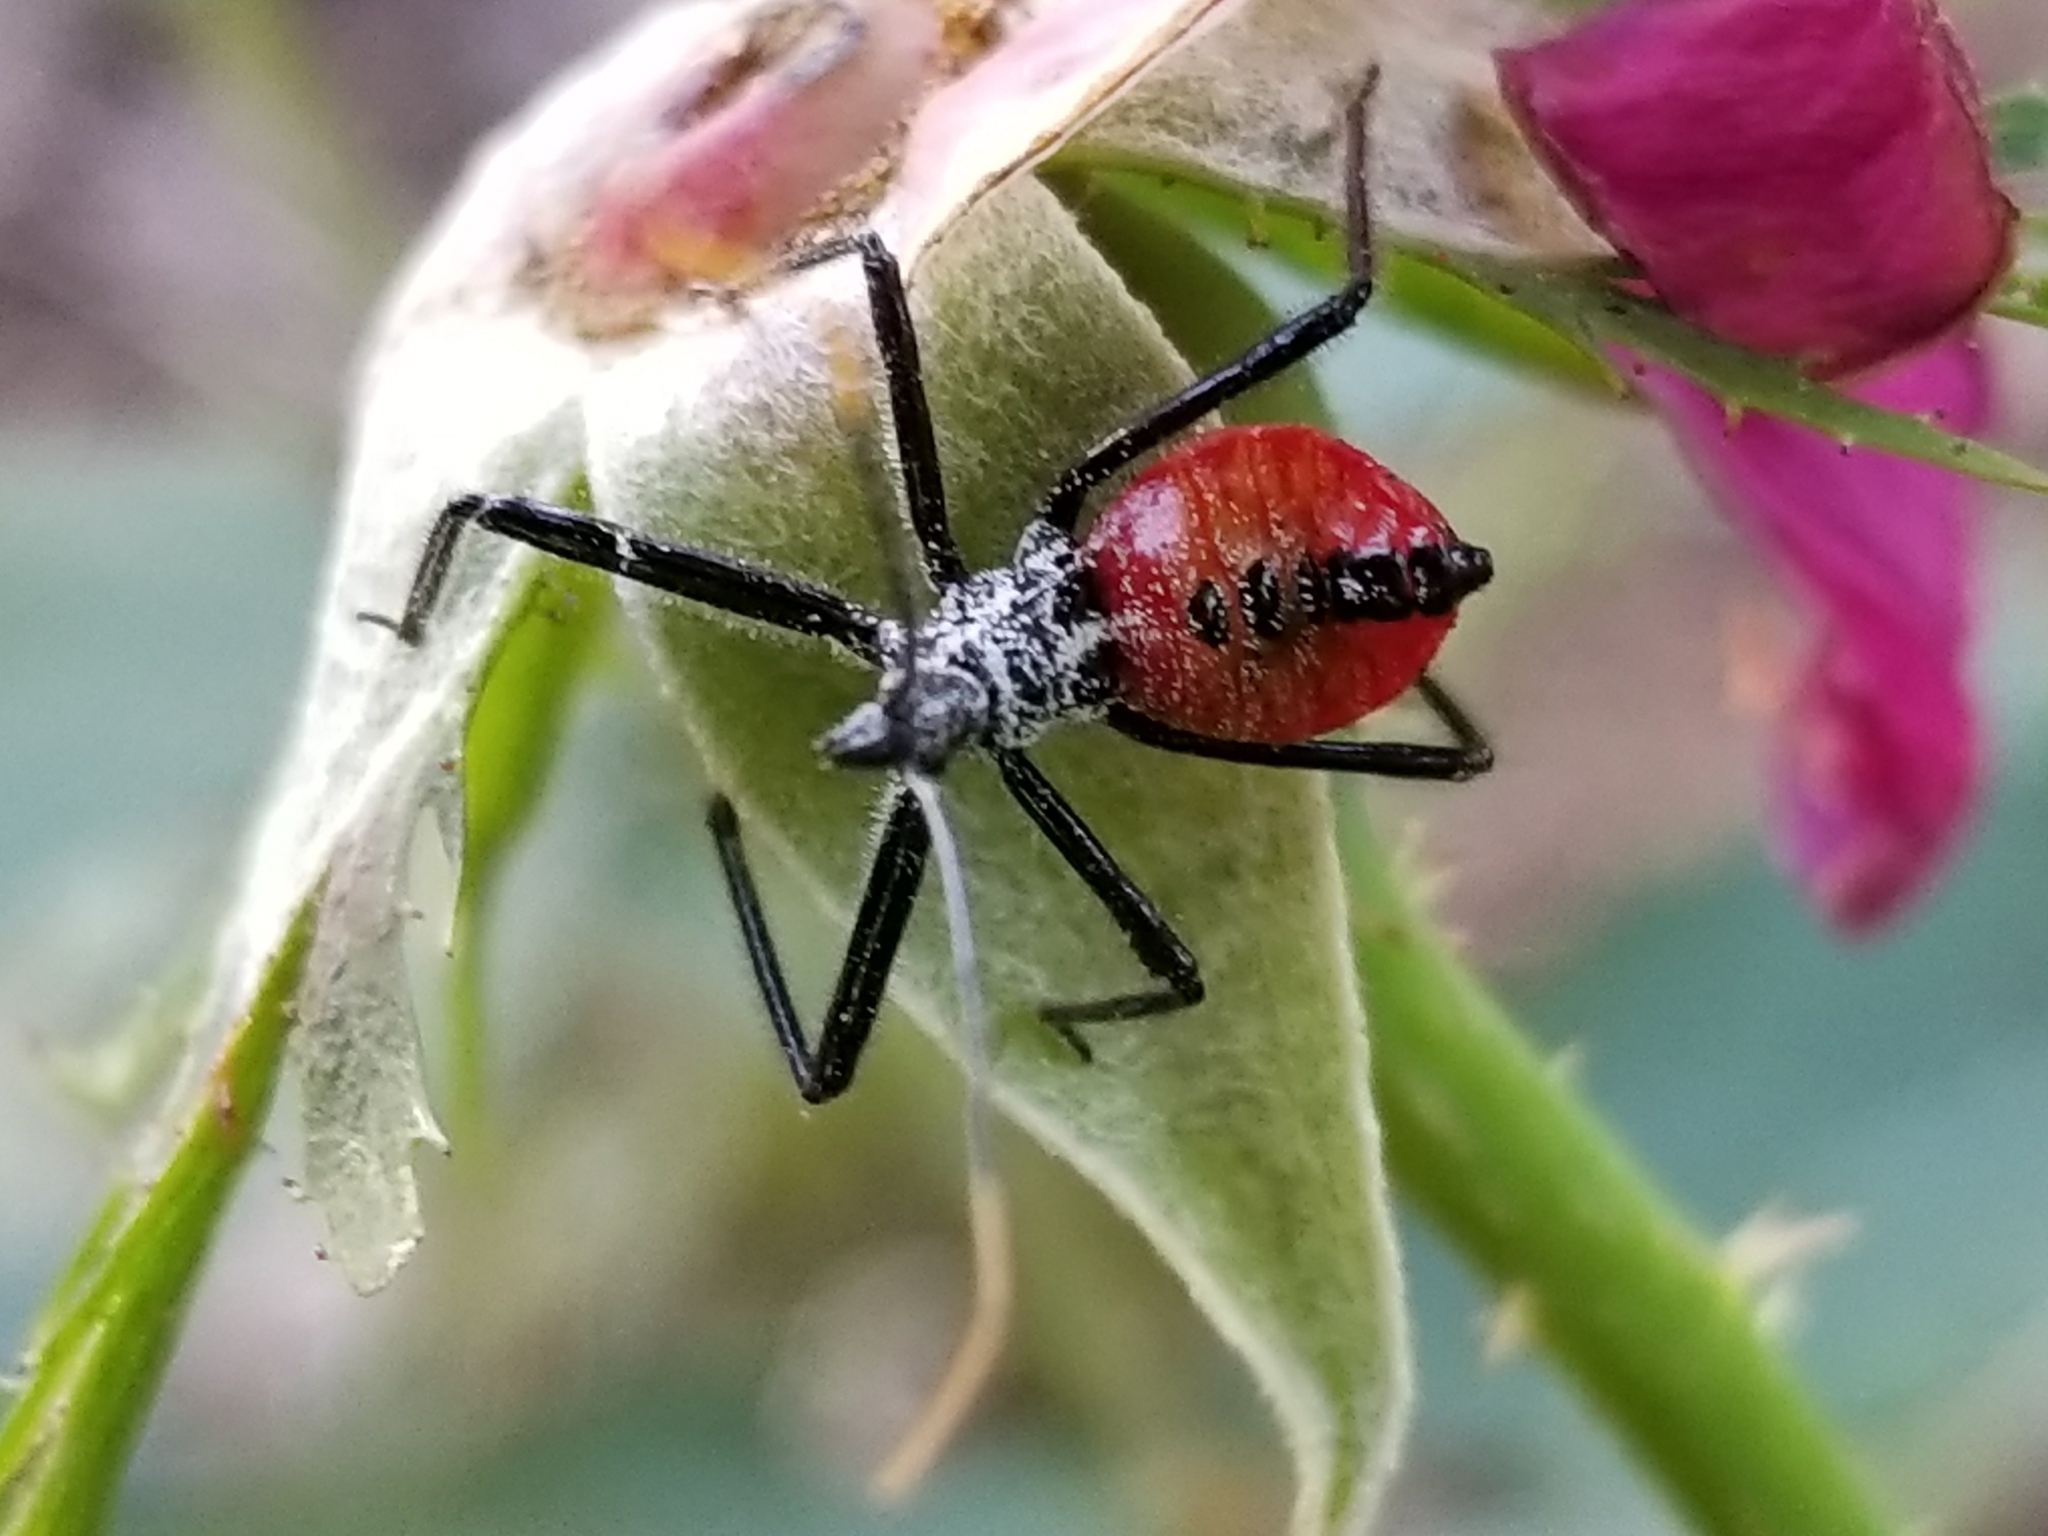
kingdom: Animalia
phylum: Arthropoda
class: Insecta
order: Hemiptera
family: Reduviidae
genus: Arilus
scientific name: Arilus cristatus
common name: North american wheel bug
